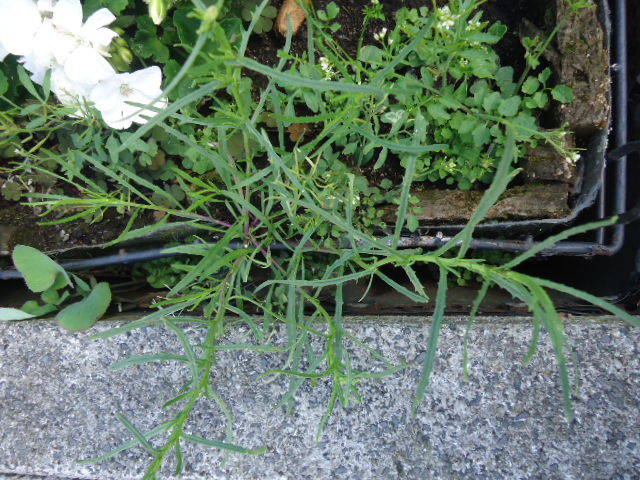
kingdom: Plantae
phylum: Tracheophyta
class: Magnoliopsida
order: Asterales
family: Asteraceae
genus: Senecio
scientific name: Senecio inaequidens
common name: Narrow-leaved ragwort
